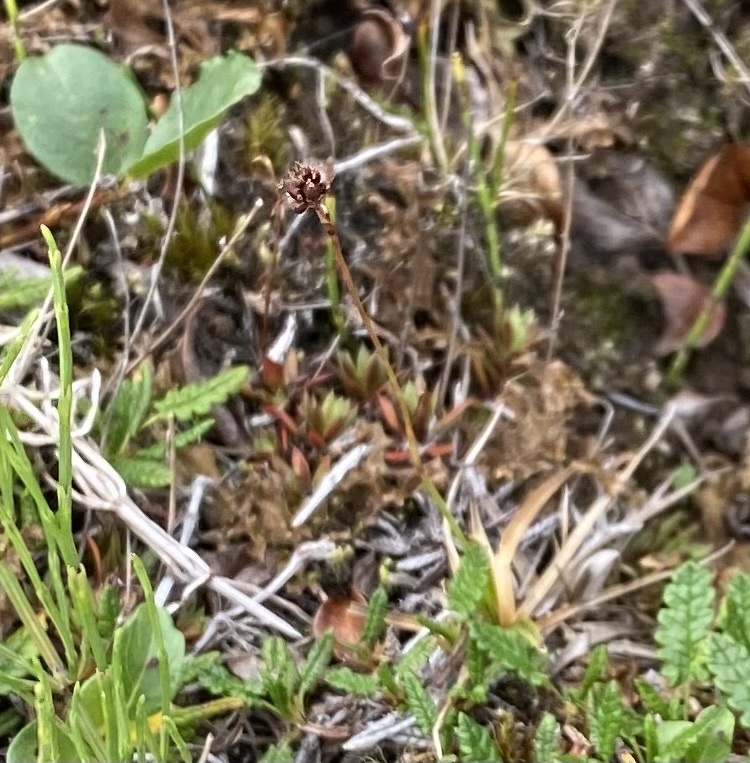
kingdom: Plantae
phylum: Tracheophyta
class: Liliopsida
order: Poales
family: Juncaceae
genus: Luzula
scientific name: Luzula nivalis
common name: Arctic woodrush
